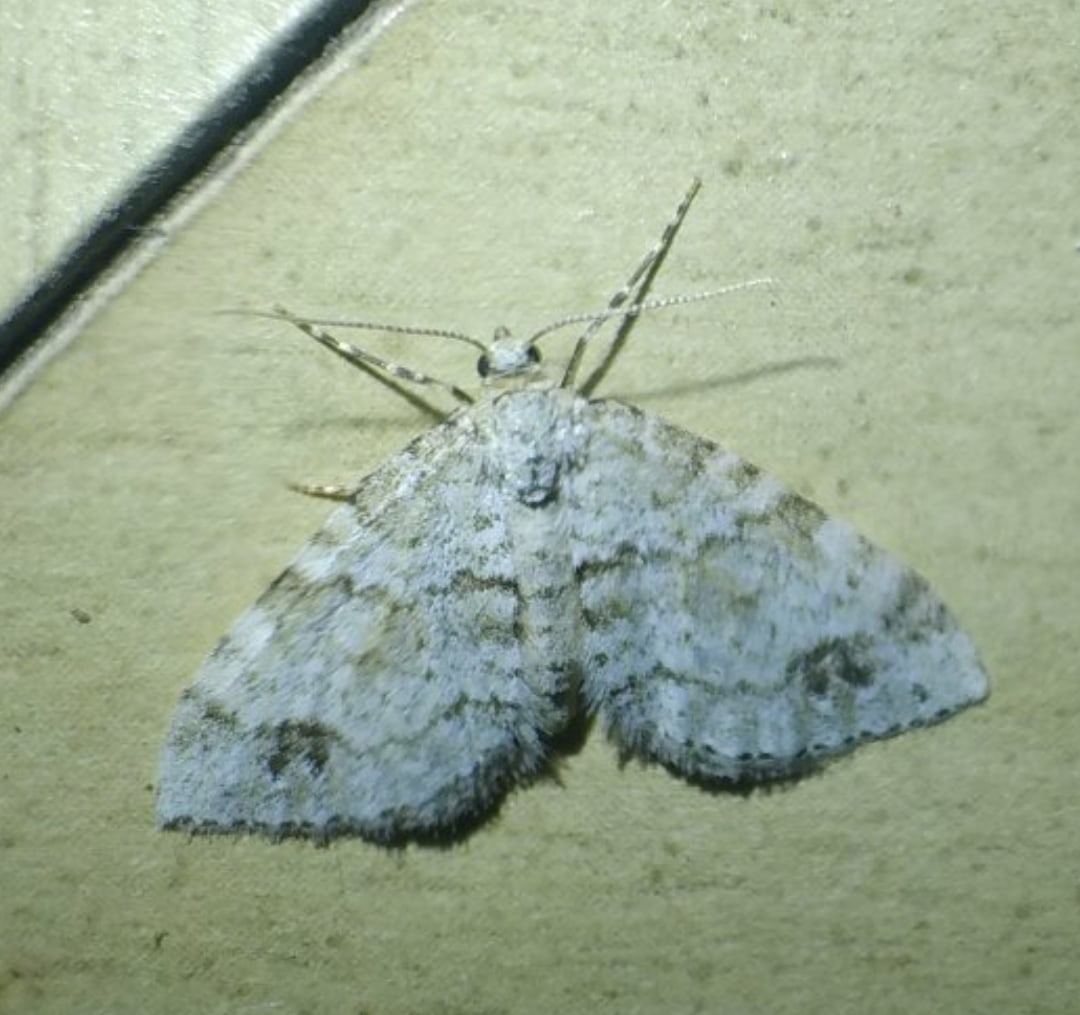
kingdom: Animalia
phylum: Arthropoda
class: Insecta
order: Lepidoptera
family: Geometridae
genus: Perizoma
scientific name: Perizoma didymata
